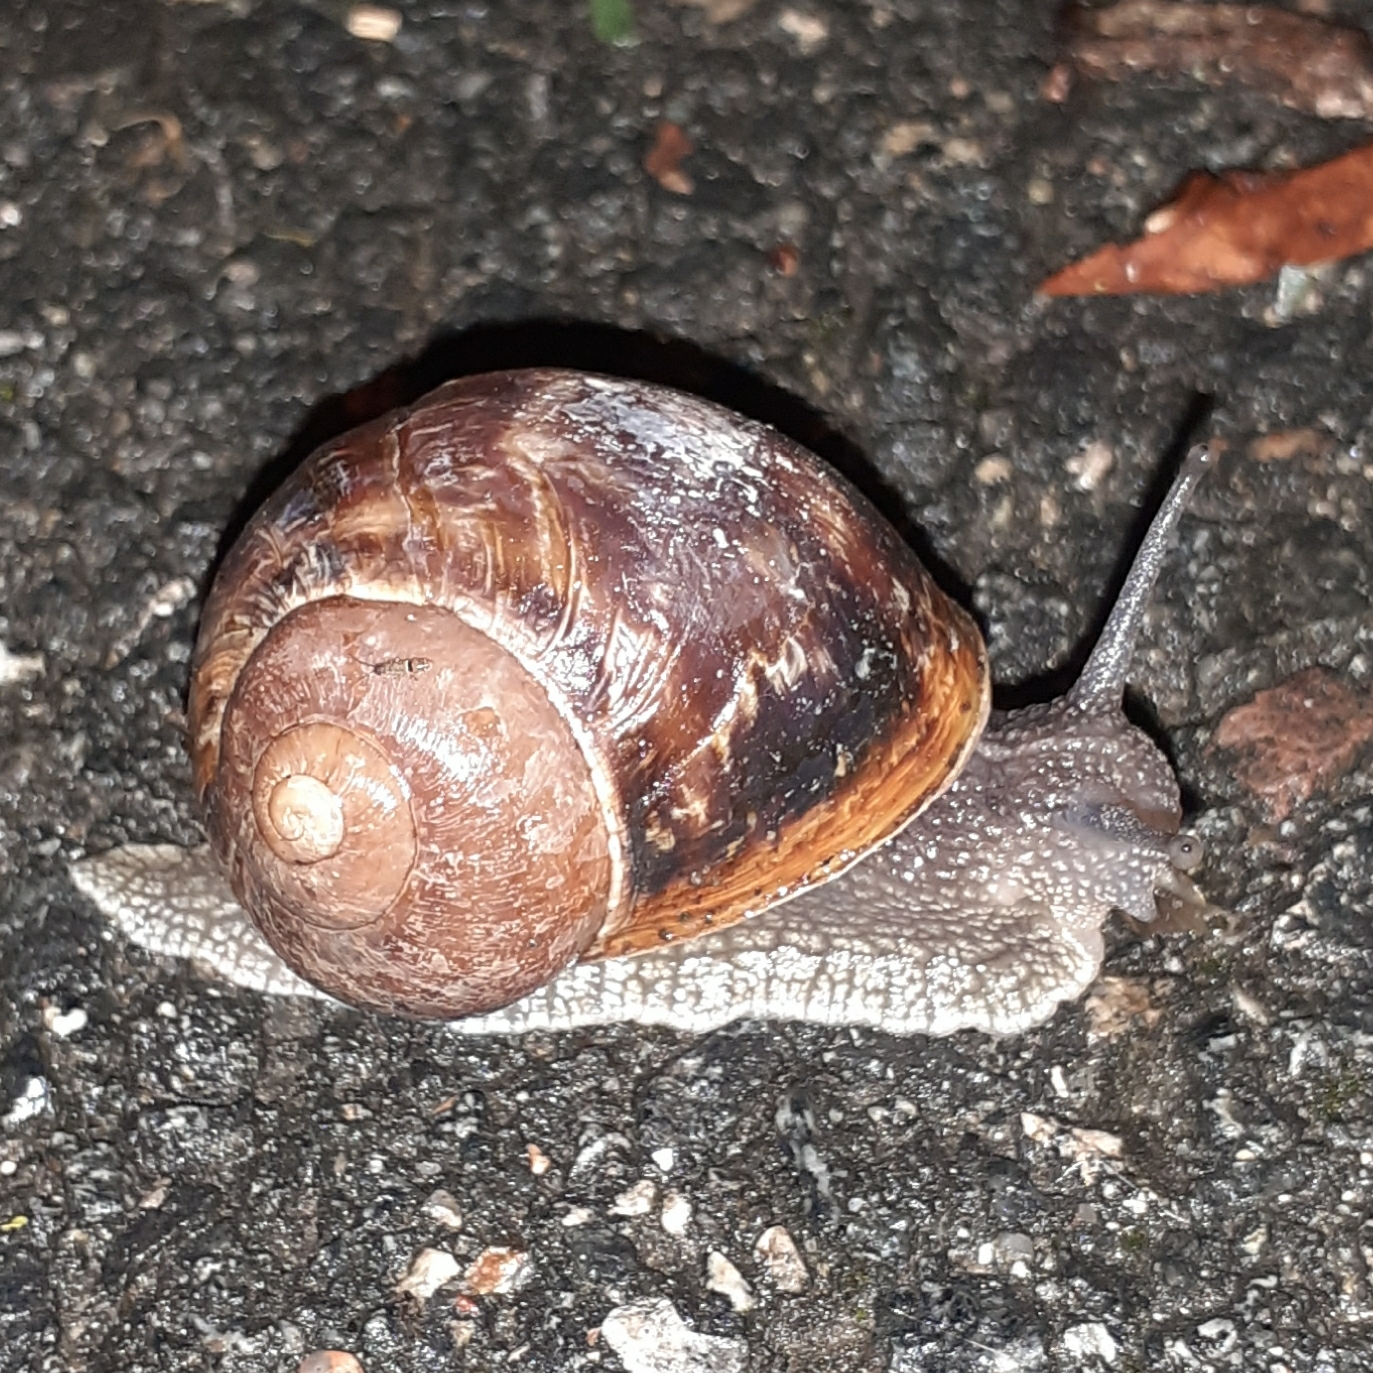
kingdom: Animalia
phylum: Mollusca
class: Gastropoda
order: Stylommatophora
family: Helicidae
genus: Cornu
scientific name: Cornu aspersum
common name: Brown garden snail
